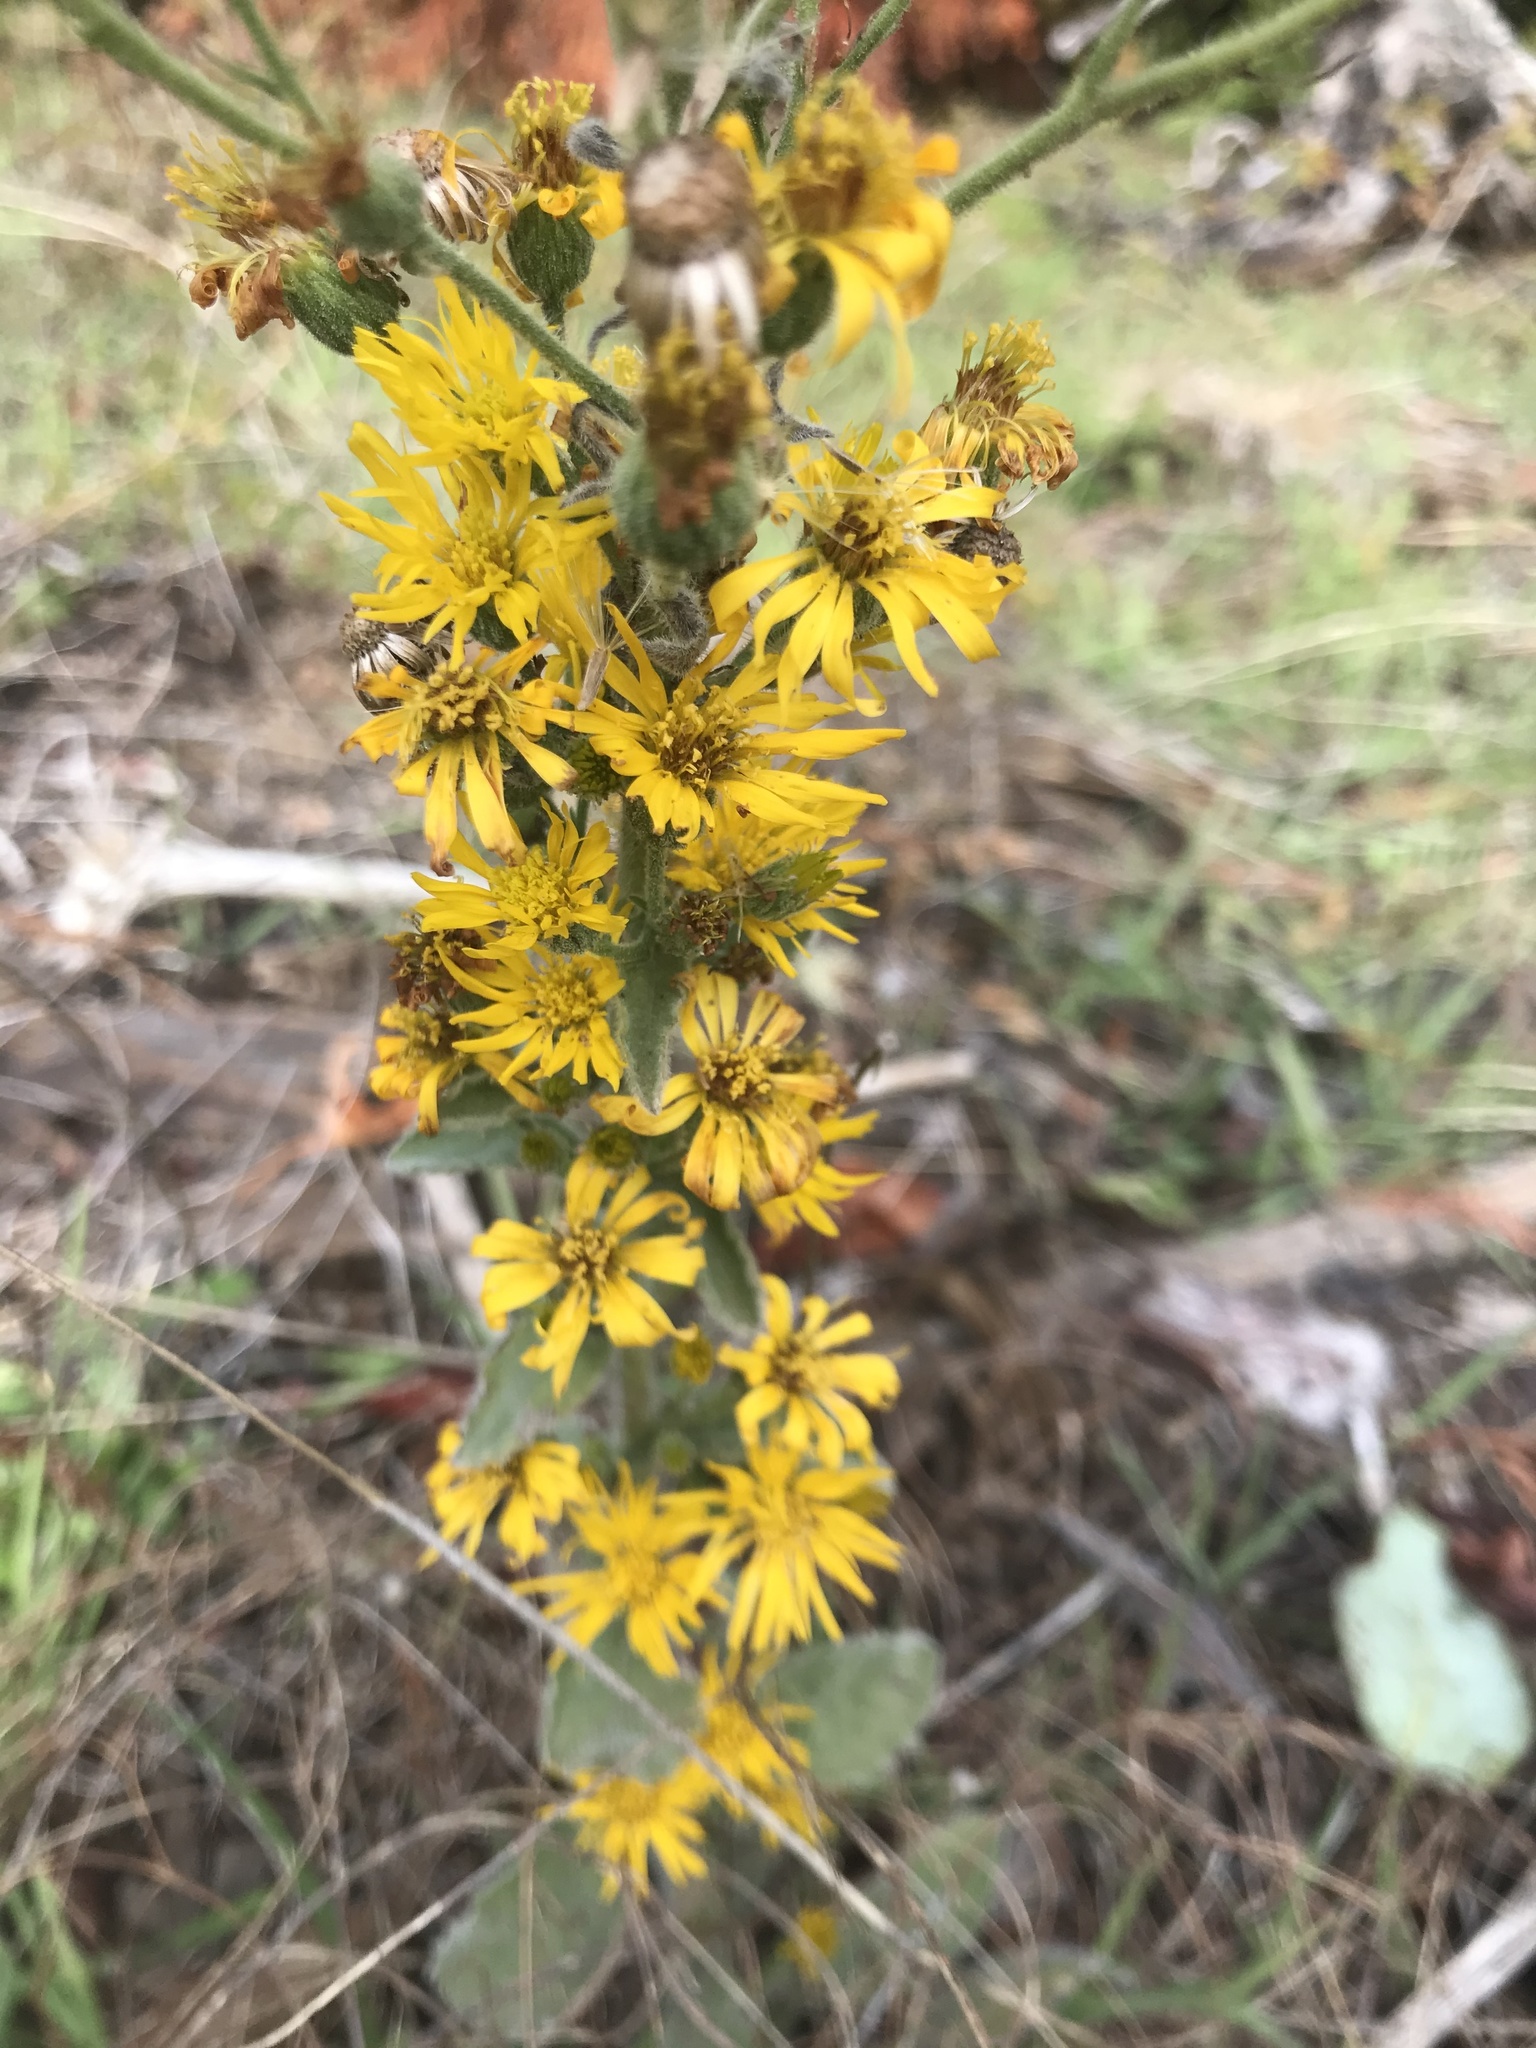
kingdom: Plantae
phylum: Tracheophyta
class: Magnoliopsida
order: Asterales
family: Asteraceae
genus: Heterotheca
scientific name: Heterotheca grandiflora
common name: Telegraphweed
